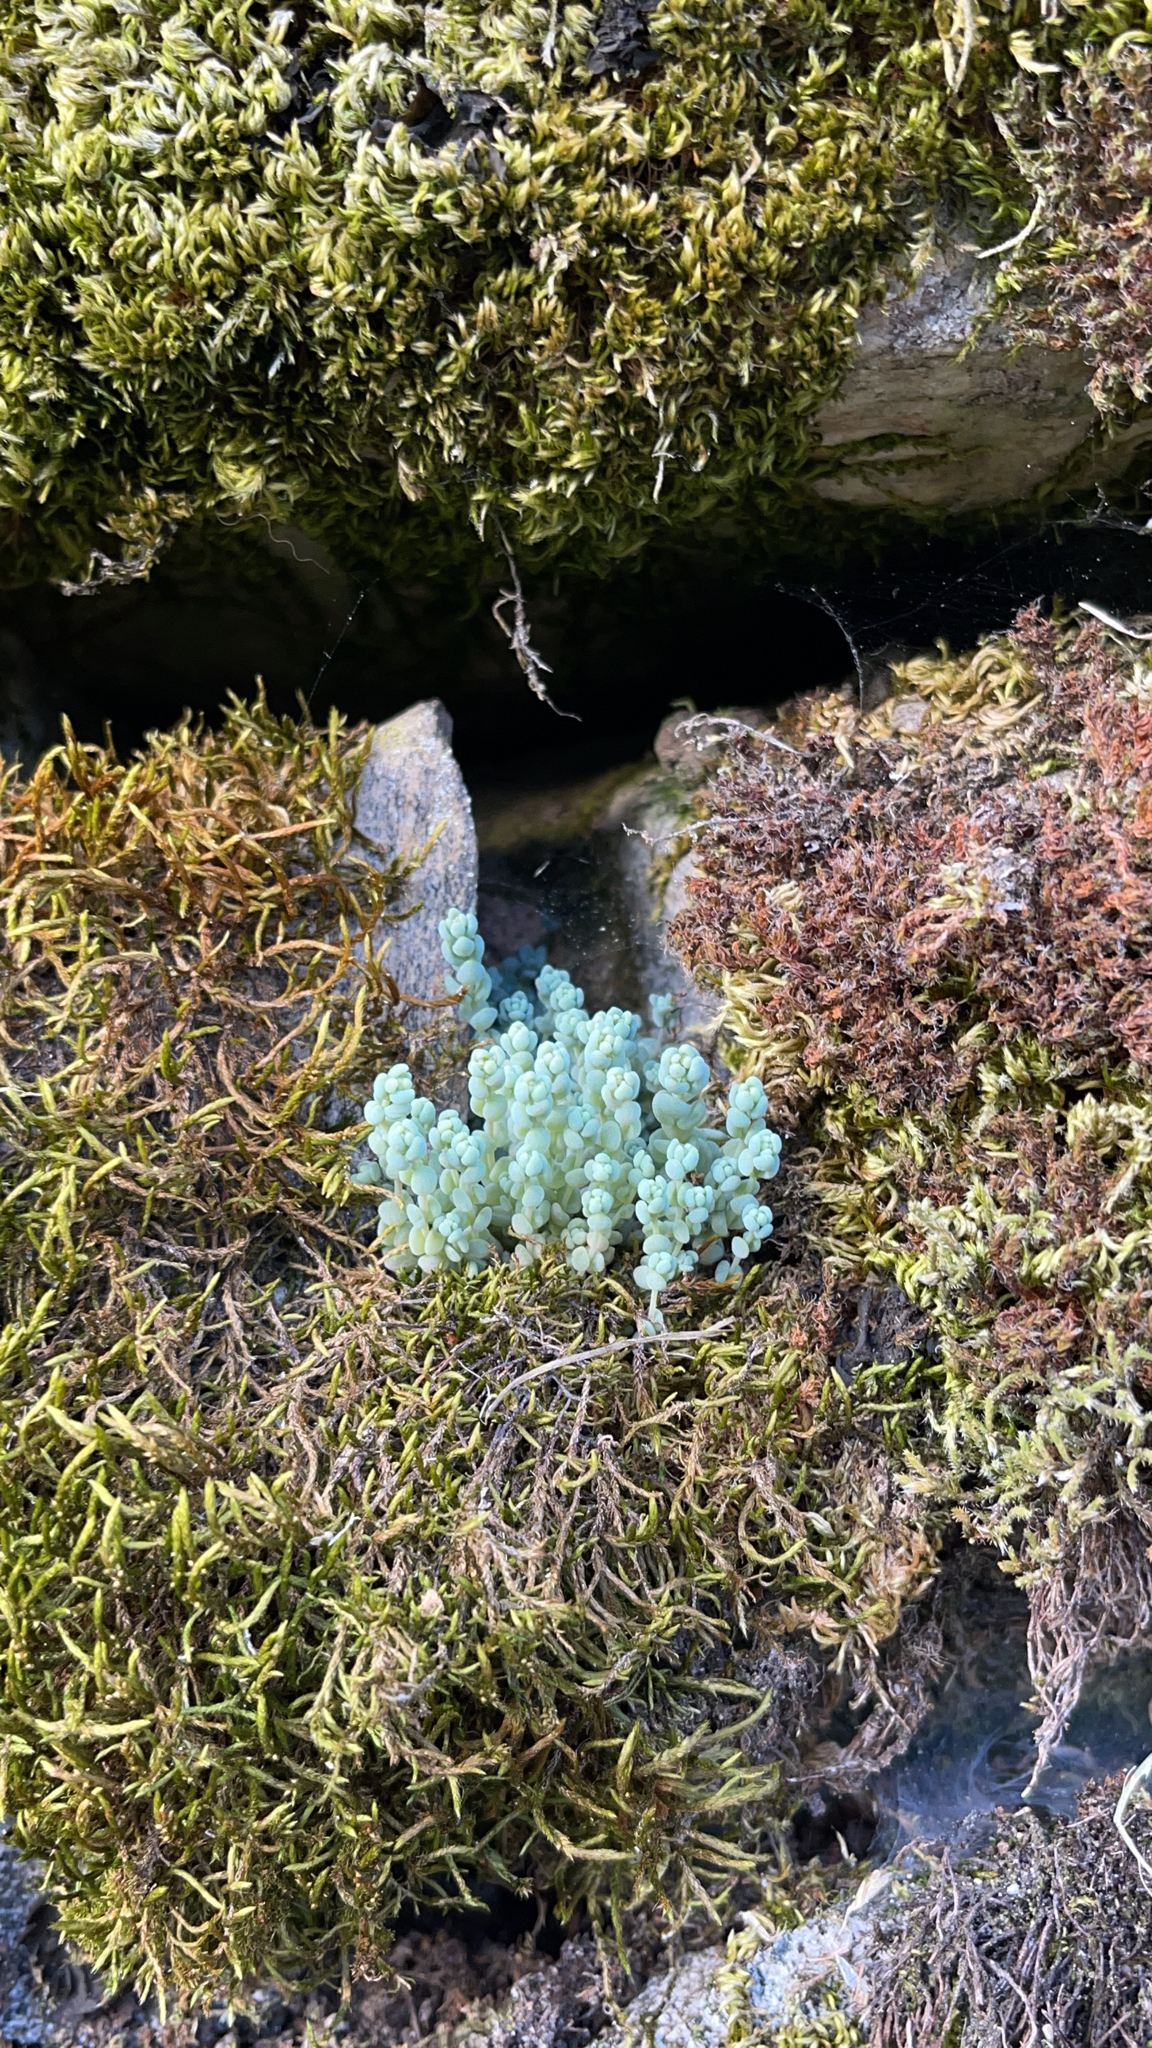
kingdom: Plantae
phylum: Tracheophyta
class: Magnoliopsida
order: Saxifragales
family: Crassulaceae
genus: Sedum
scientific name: Sedum dasyphyllum
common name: Thick-leaf stonecrop
